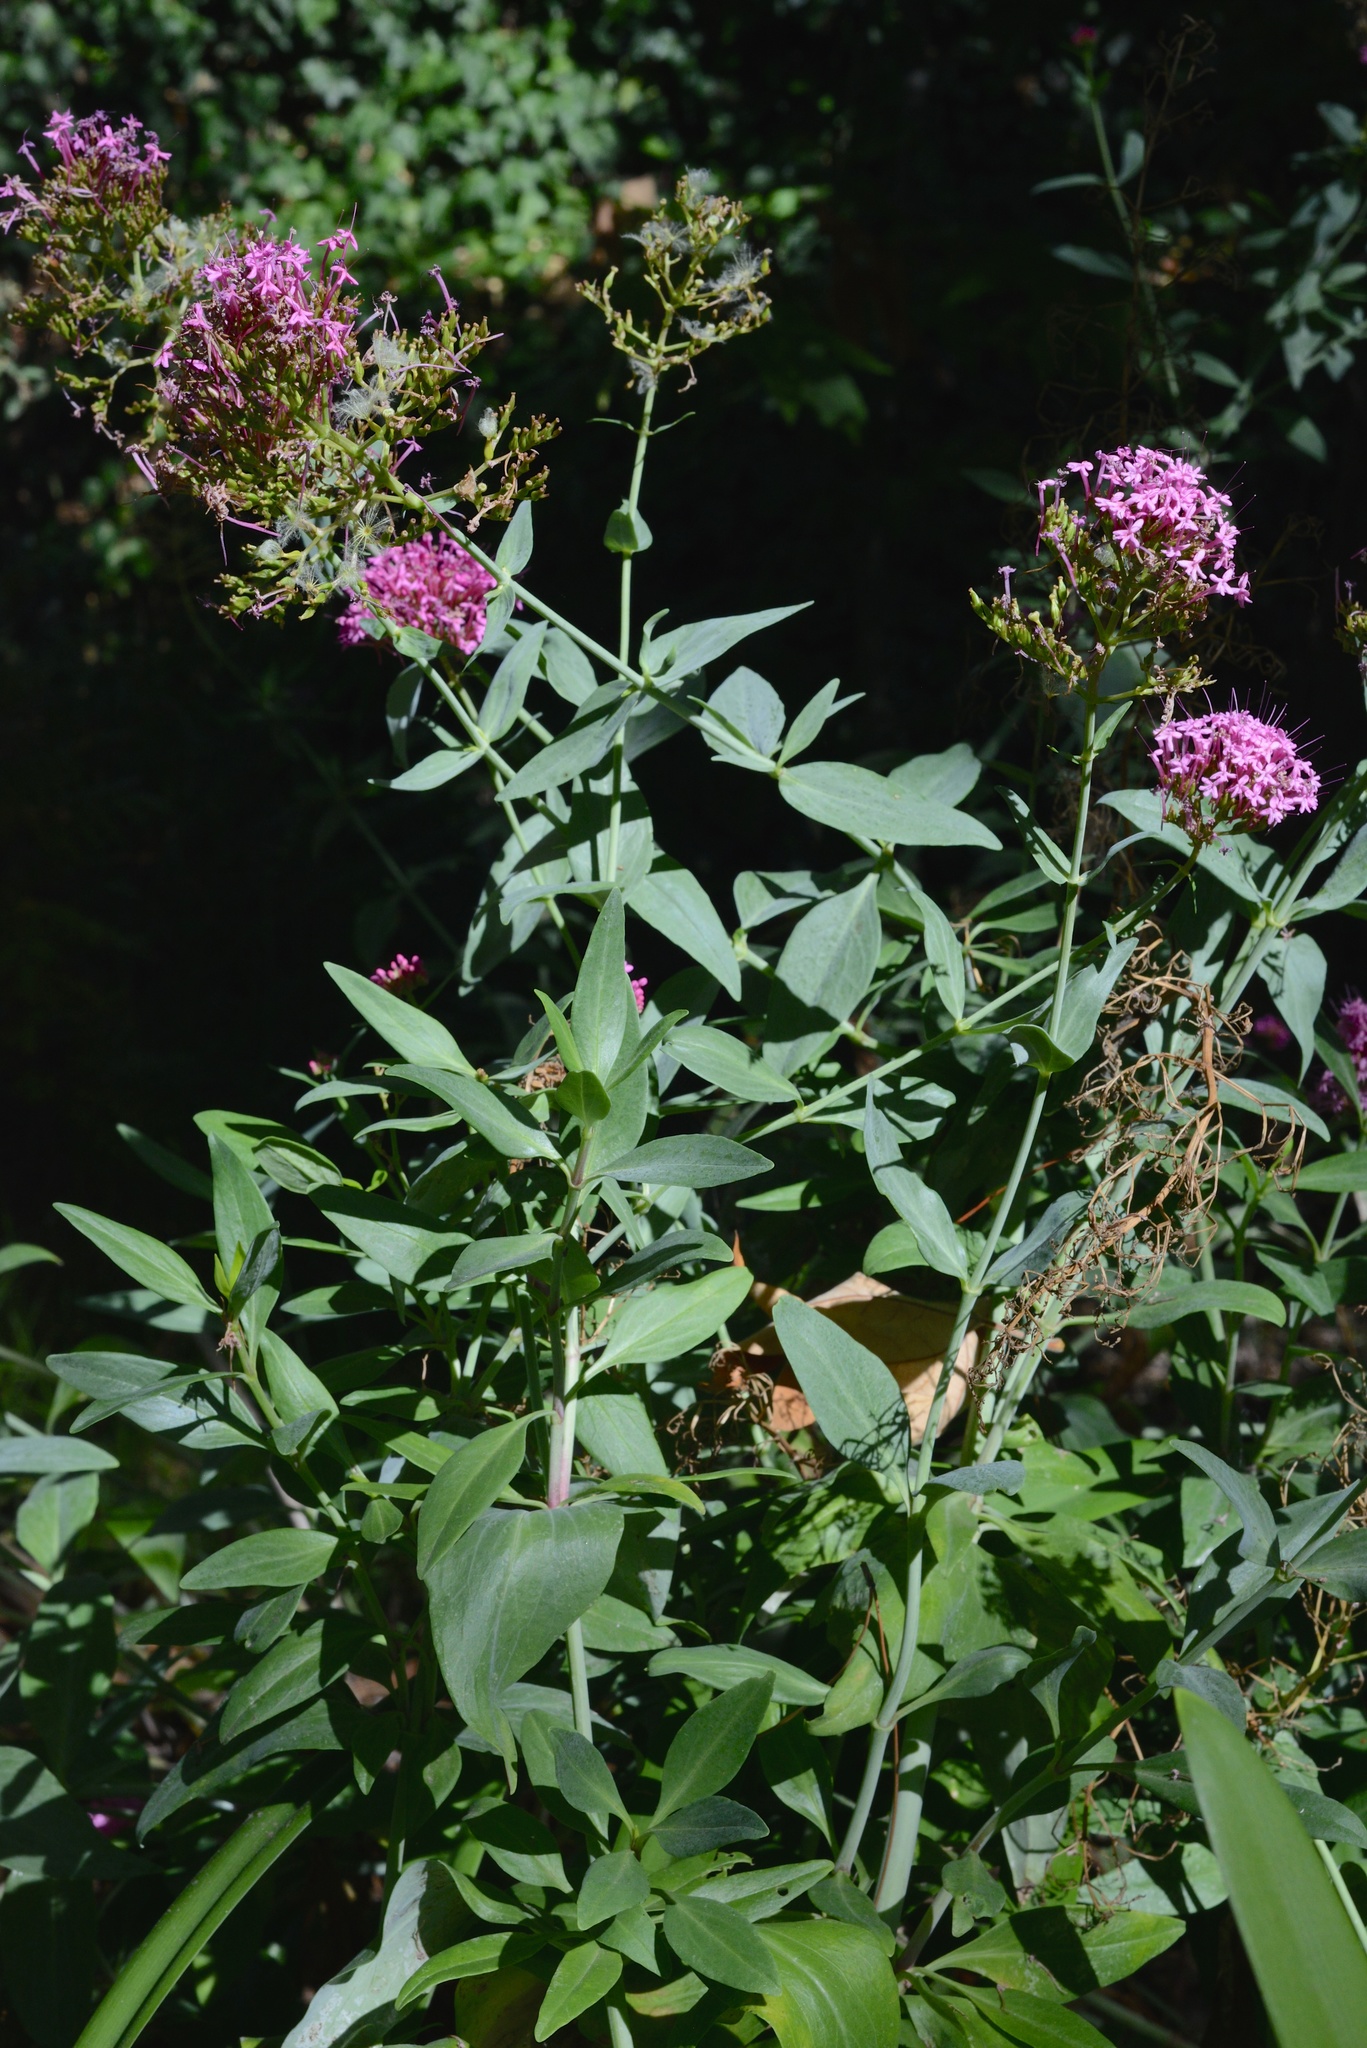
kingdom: Plantae
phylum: Tracheophyta
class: Magnoliopsida
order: Dipsacales
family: Caprifoliaceae
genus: Centranthus
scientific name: Centranthus ruber
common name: Red valerian
